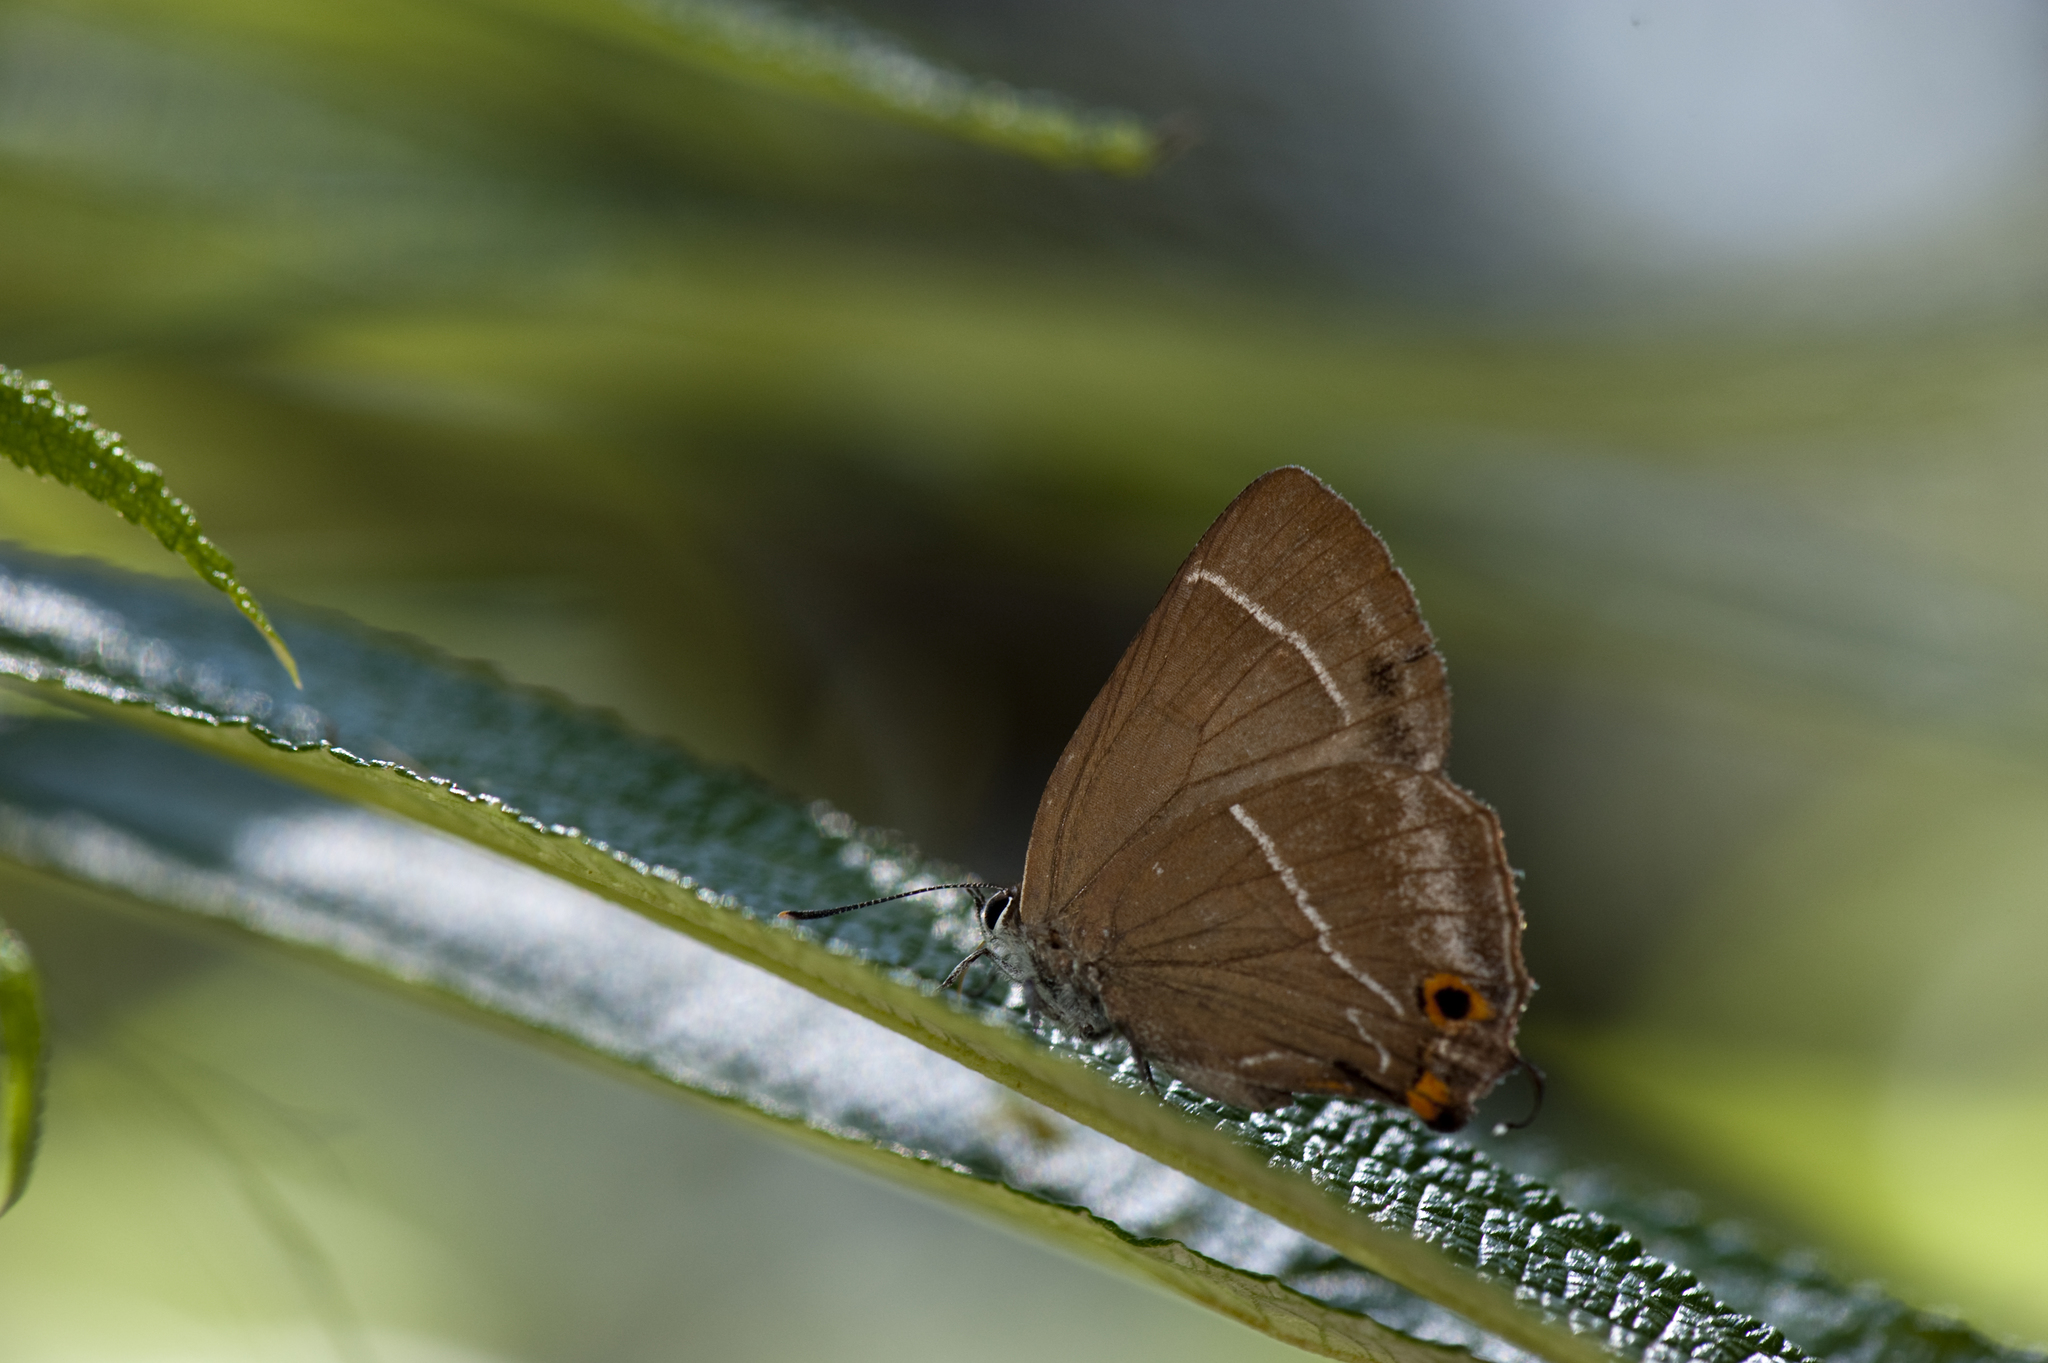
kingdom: Animalia
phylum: Arthropoda
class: Insecta
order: Lepidoptera
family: Lycaenidae
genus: Neozephyrus
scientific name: Neozephyrus taiwanus
